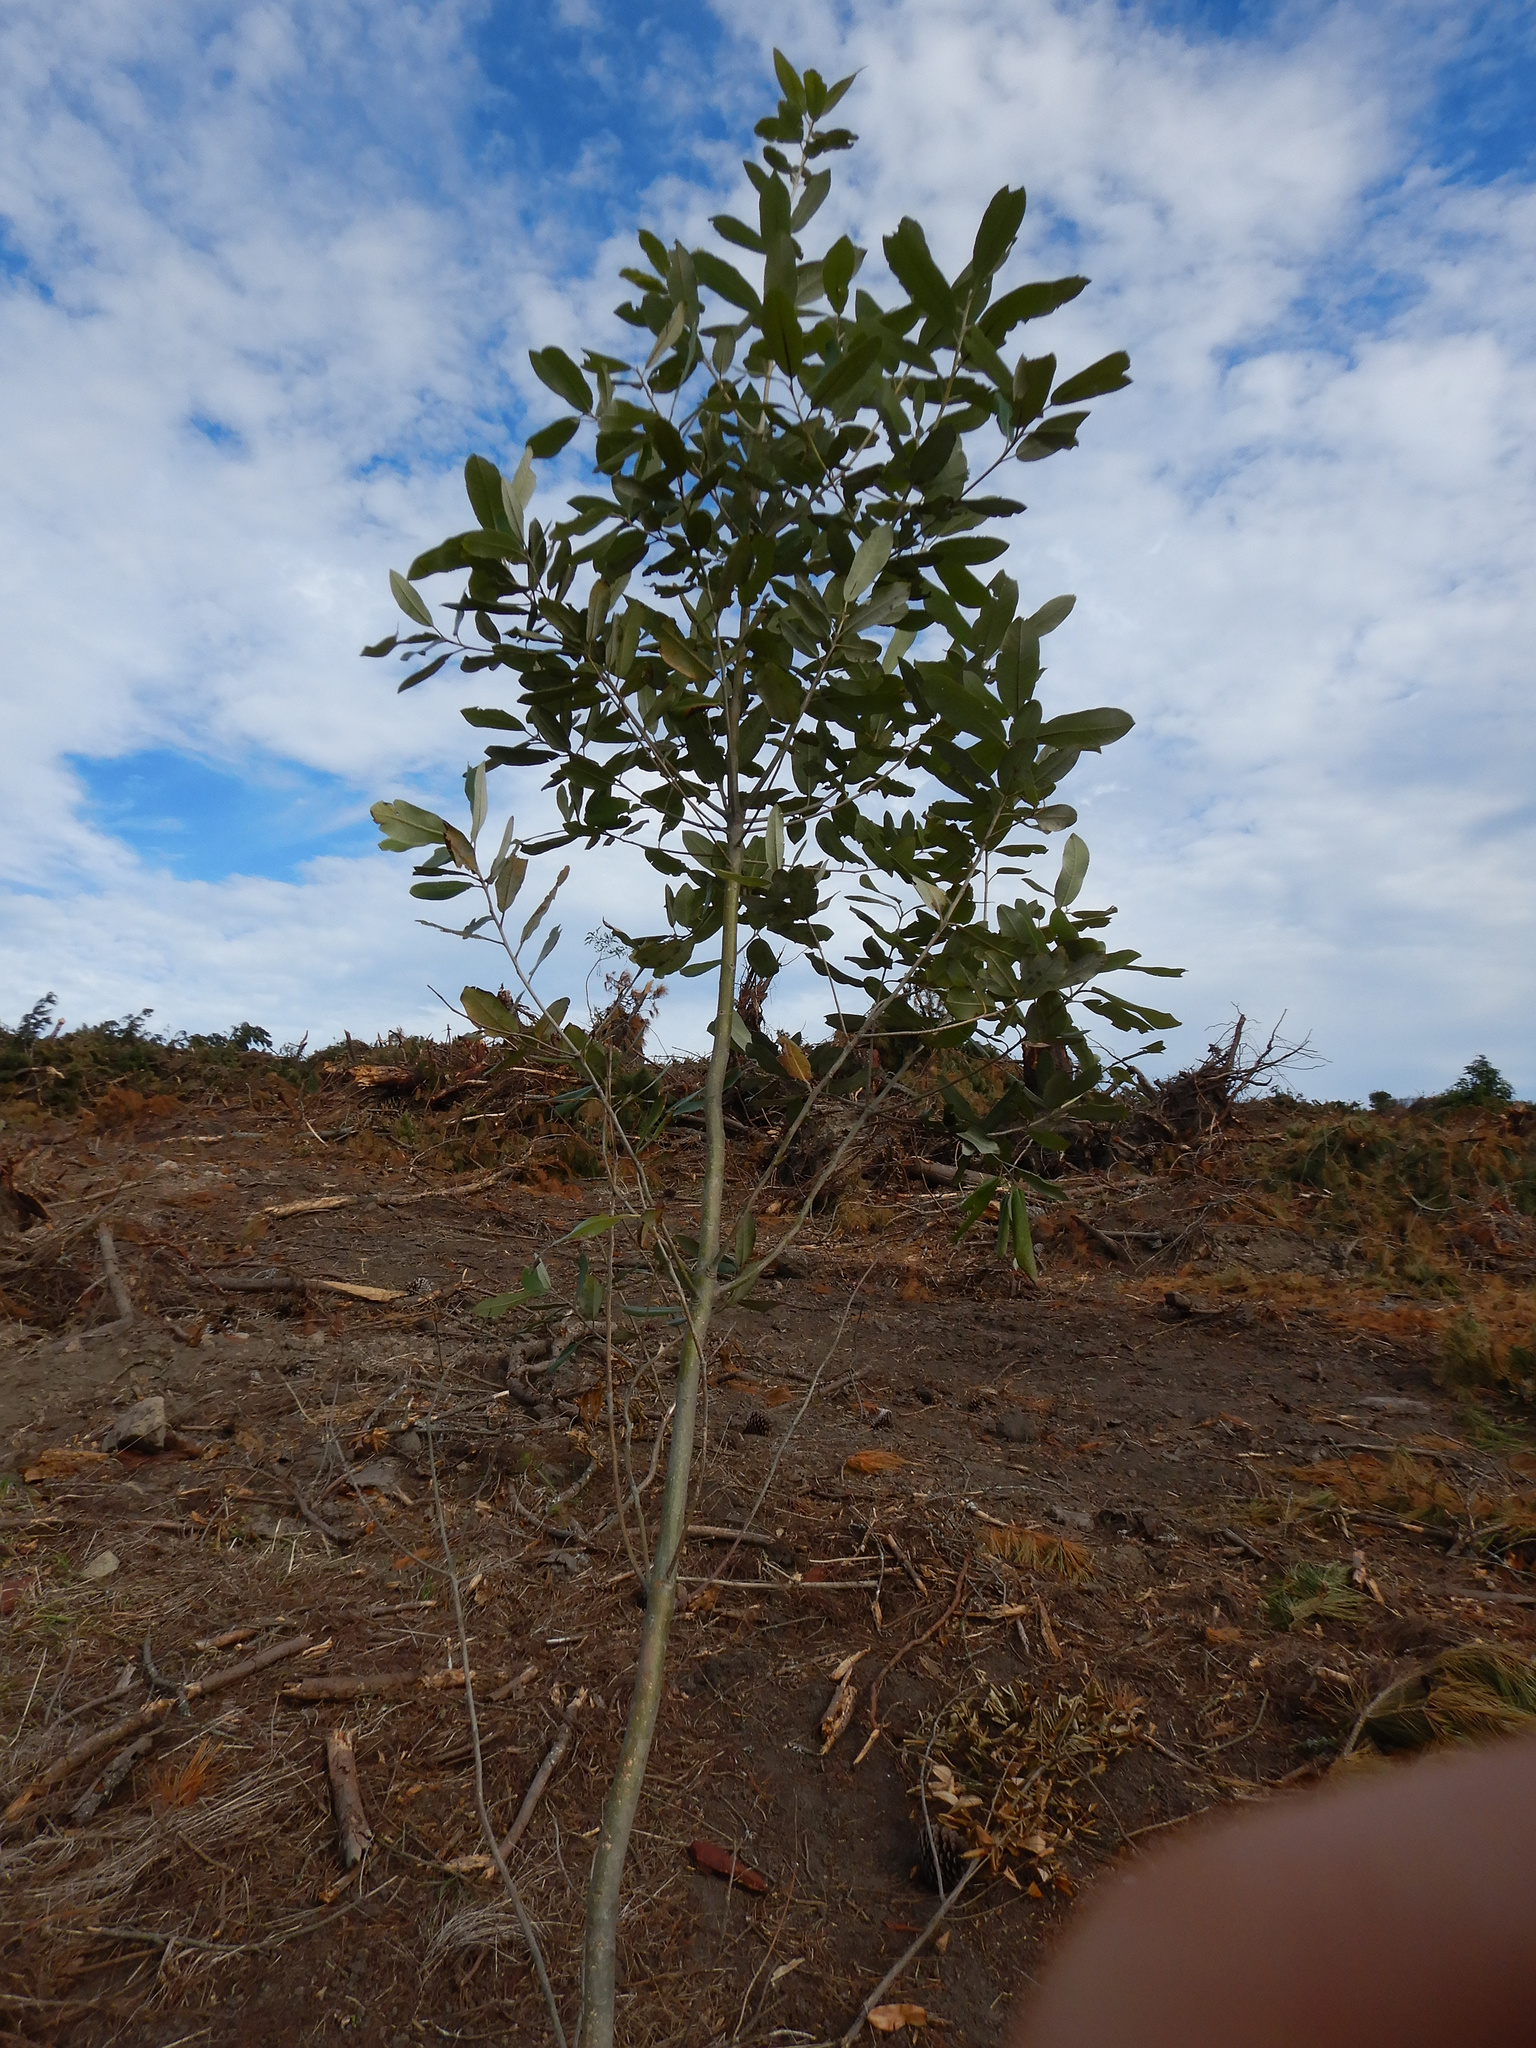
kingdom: Plantae
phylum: Tracheophyta
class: Magnoliopsida
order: Apiales
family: Pittosporaceae
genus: Pittosporum
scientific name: Pittosporum ralphii
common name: Ralph's desertwillow
